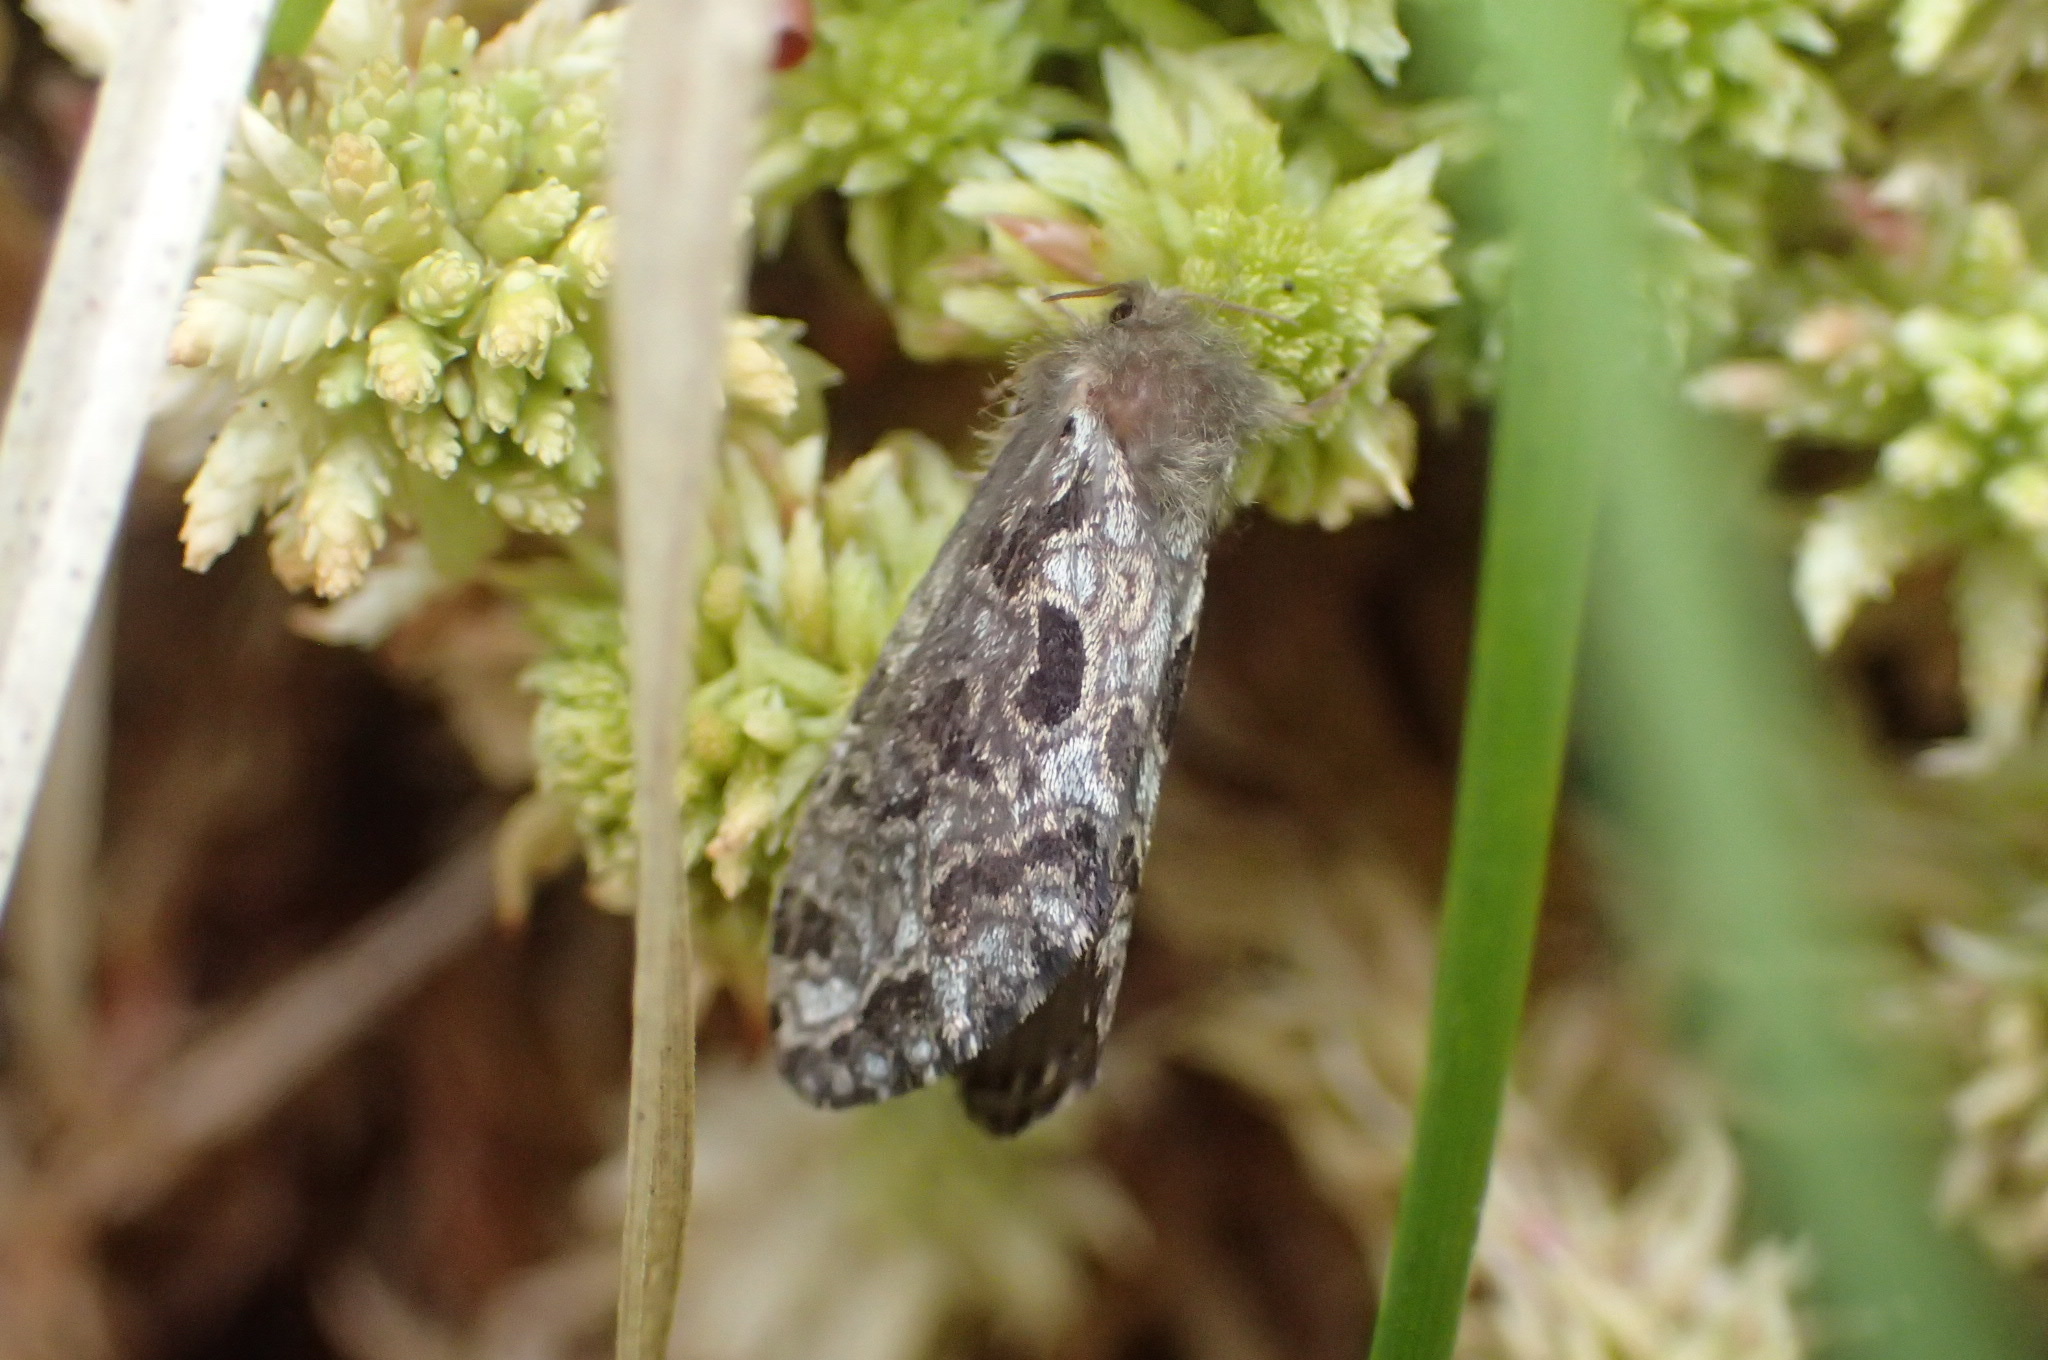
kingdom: Animalia
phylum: Arthropoda
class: Insecta
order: Lepidoptera
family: Hepialidae
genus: Korscheltellus
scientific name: Korscheltellus gracilis
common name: Conifer swift moth
